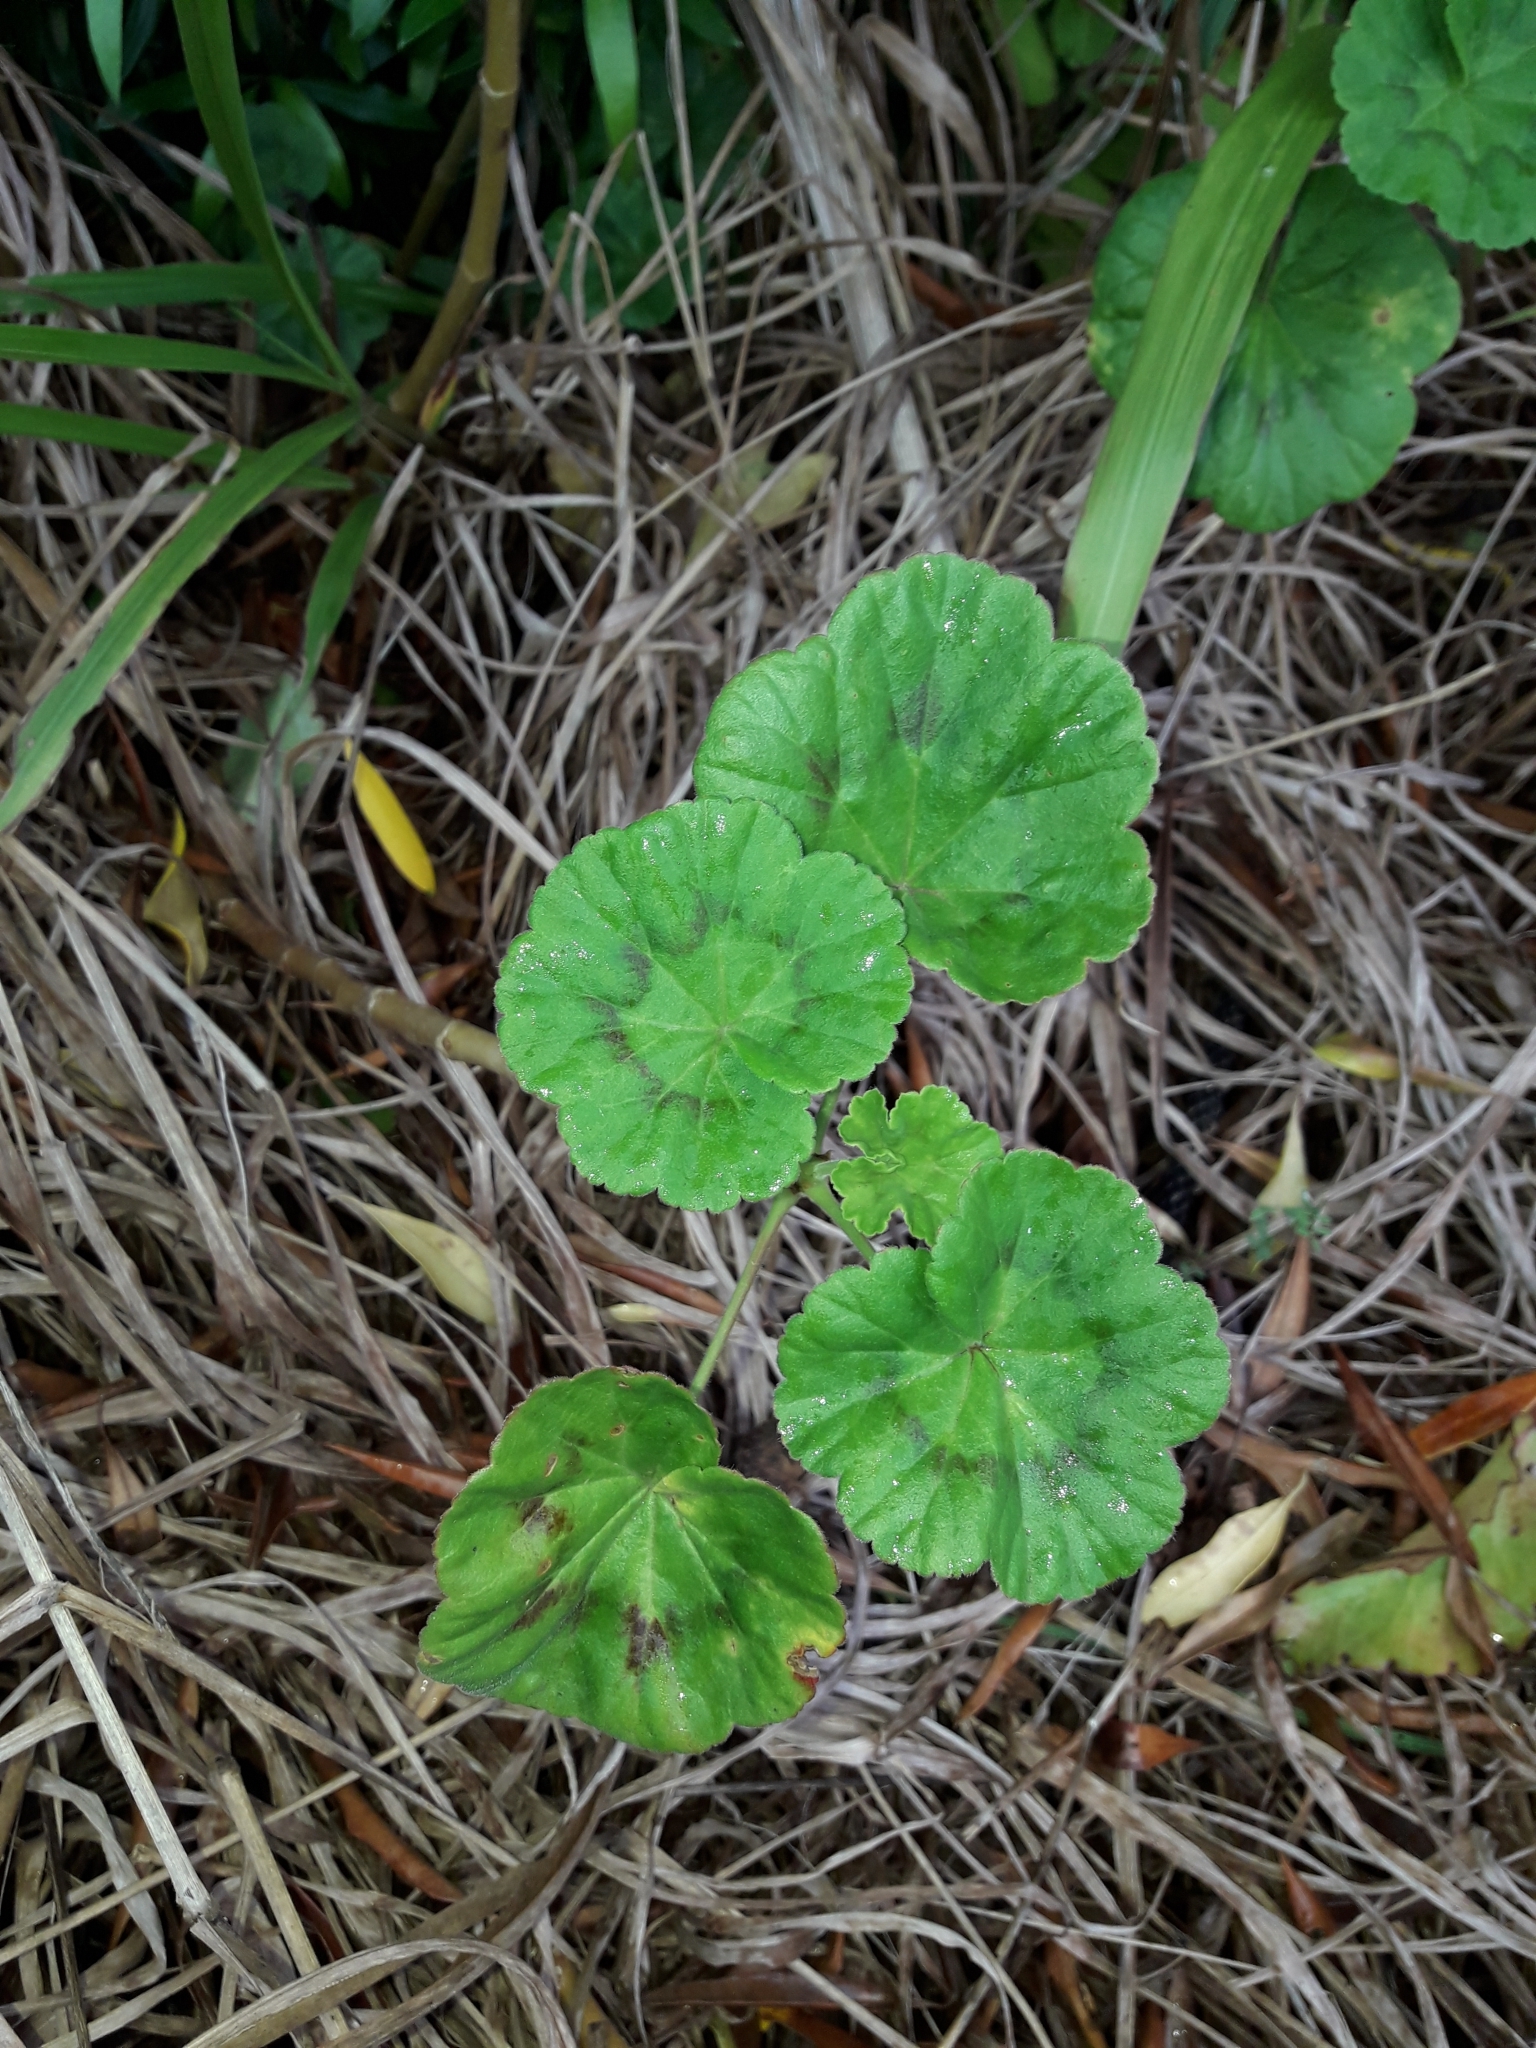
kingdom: Plantae
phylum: Tracheophyta
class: Magnoliopsida
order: Geraniales
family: Geraniaceae
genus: Pelargonium
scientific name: Pelargonium hybridum
